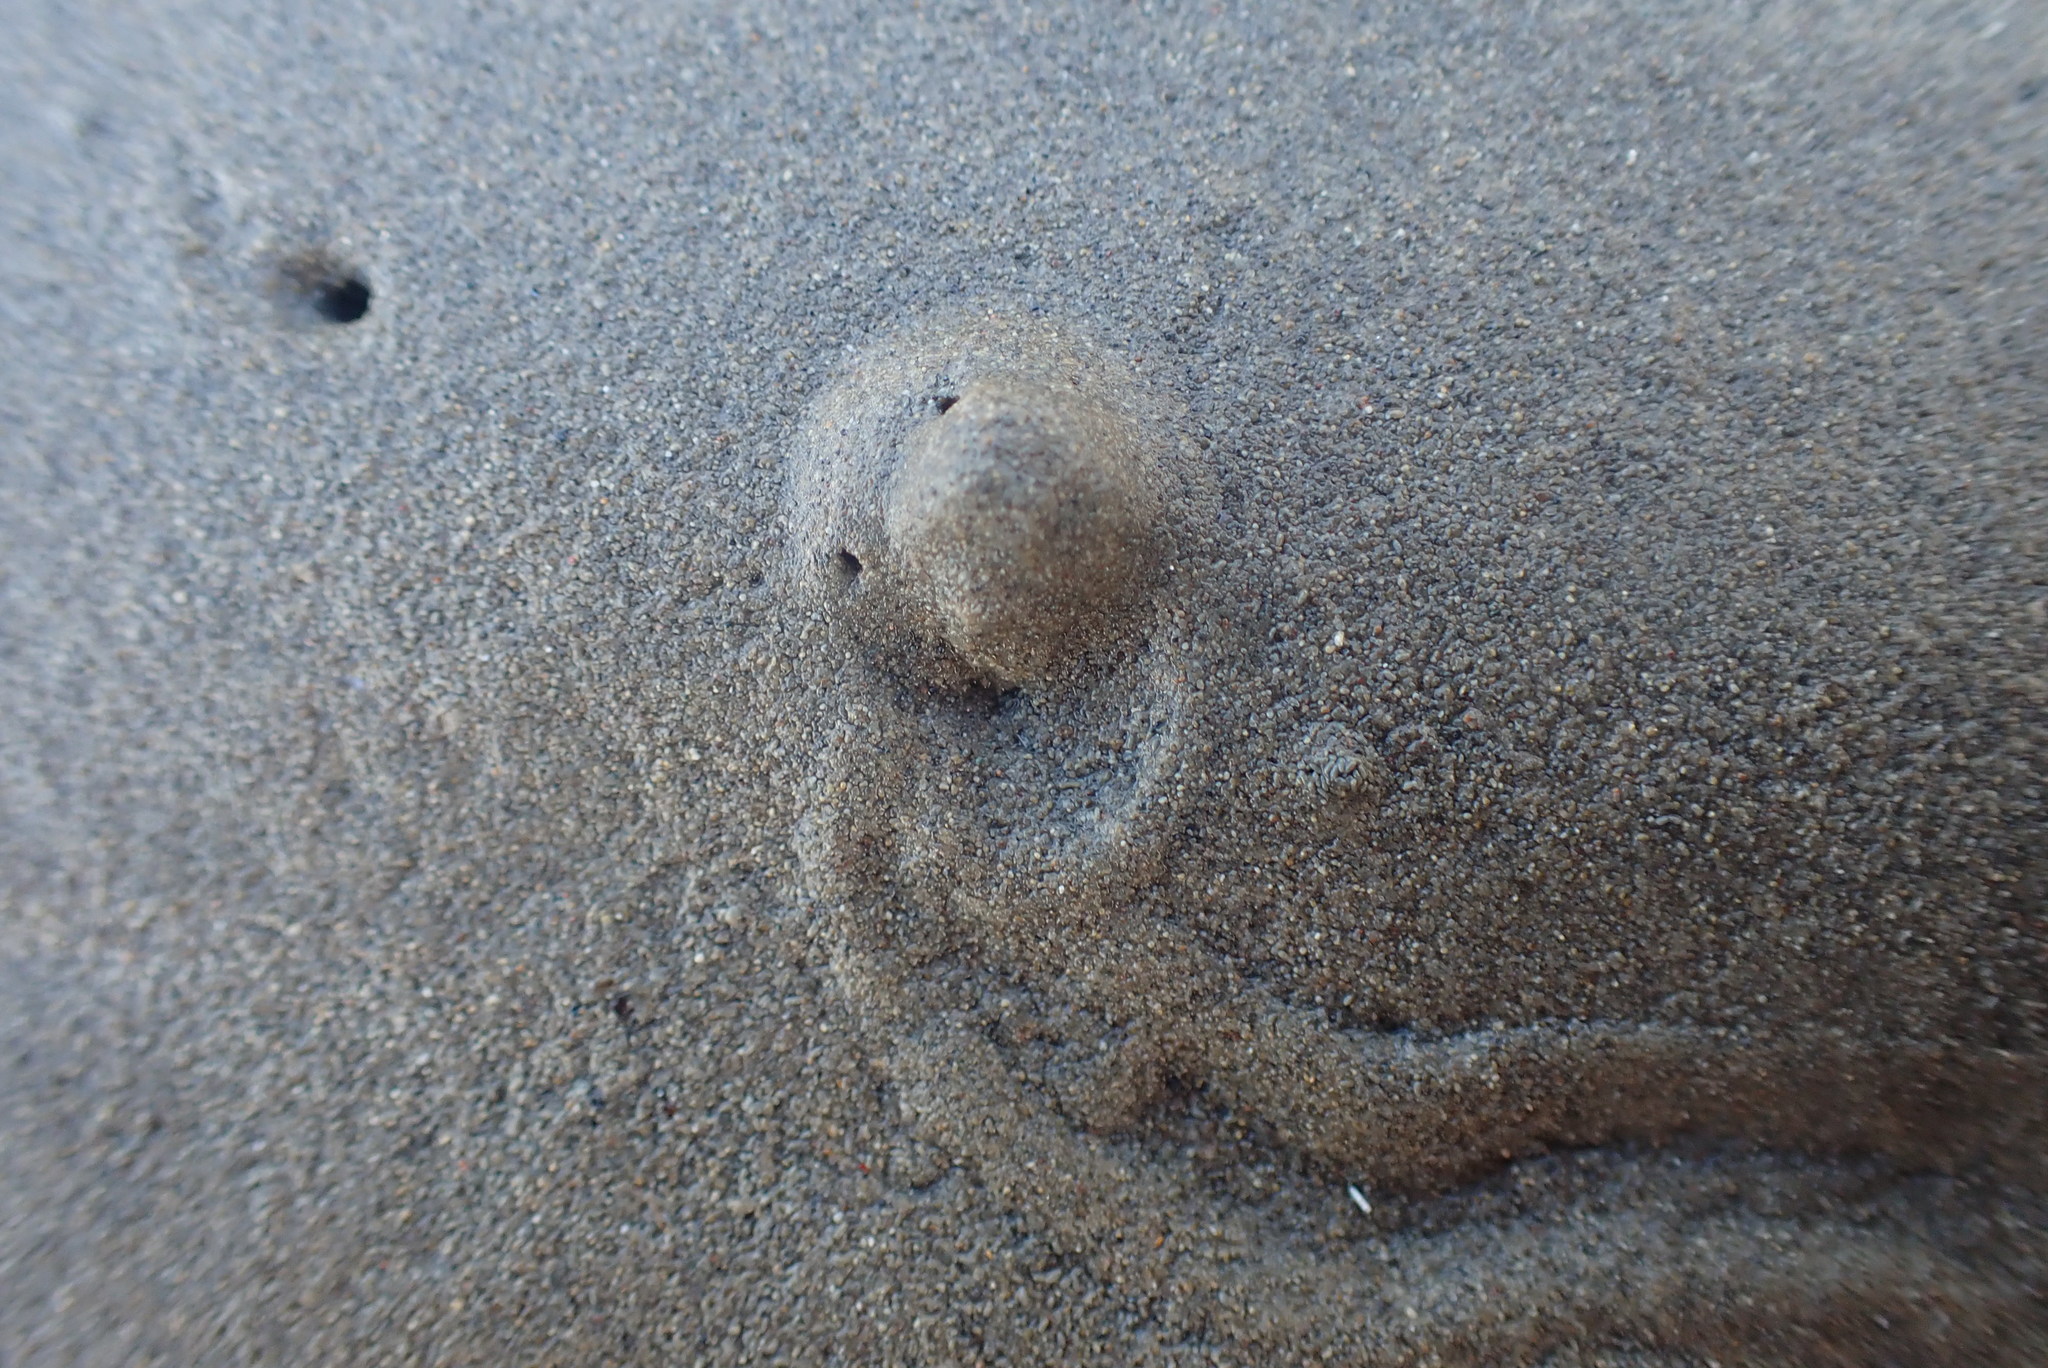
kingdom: Animalia
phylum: Mollusca
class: Gastropoda
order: Neogastropoda
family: Nassariidae
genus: Tritia
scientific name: Tritia burchardi
